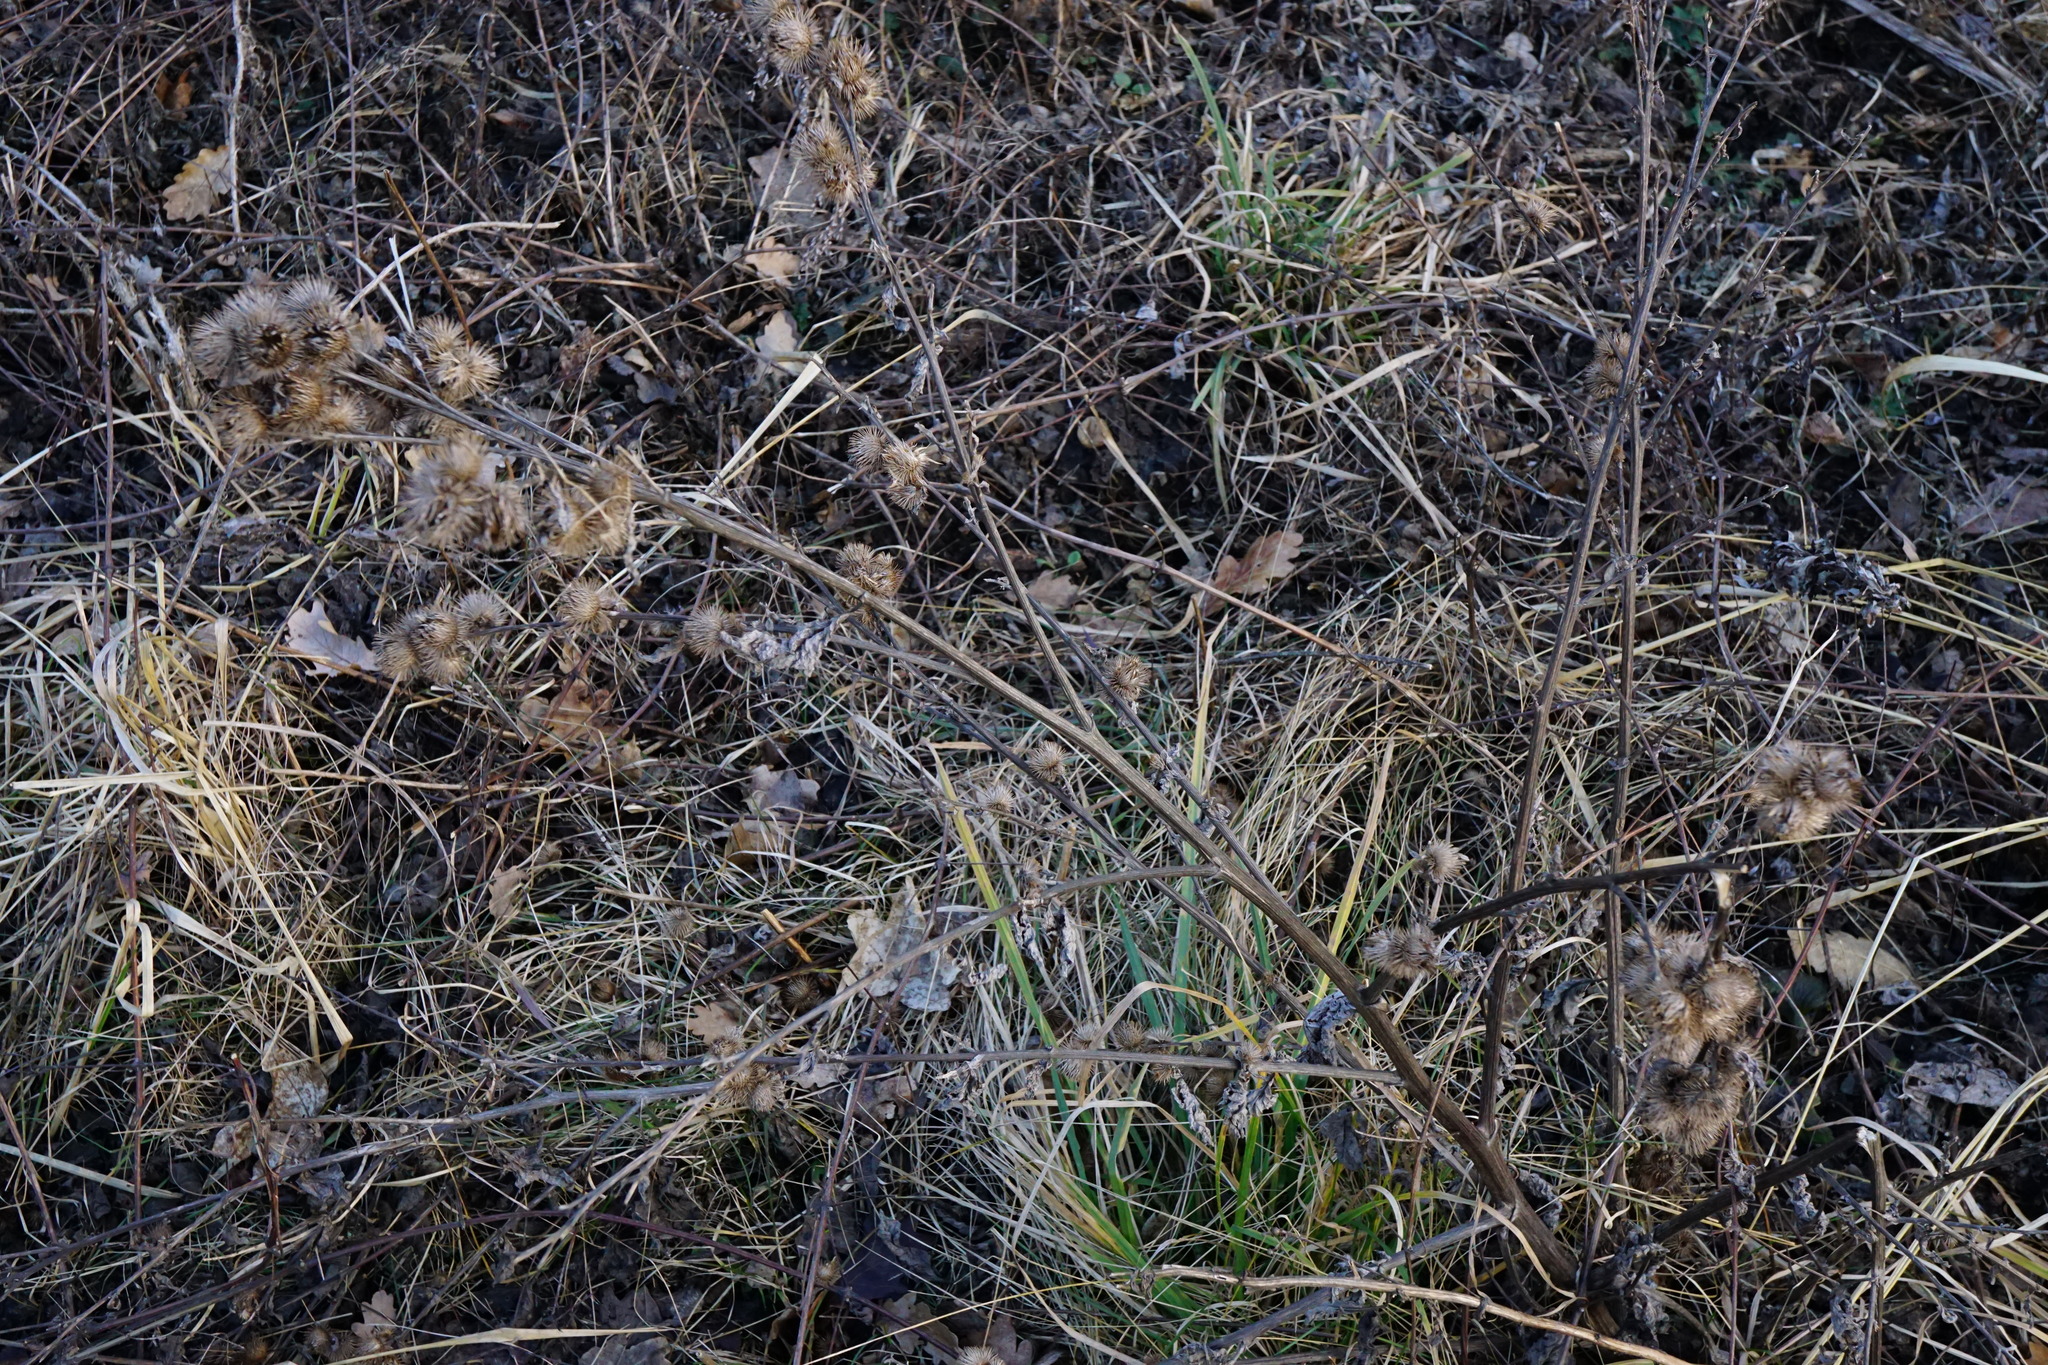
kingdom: Plantae
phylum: Tracheophyta
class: Magnoliopsida
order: Asterales
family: Asteraceae
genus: Arctium
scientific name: Arctium minus
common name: Lesser burdock
